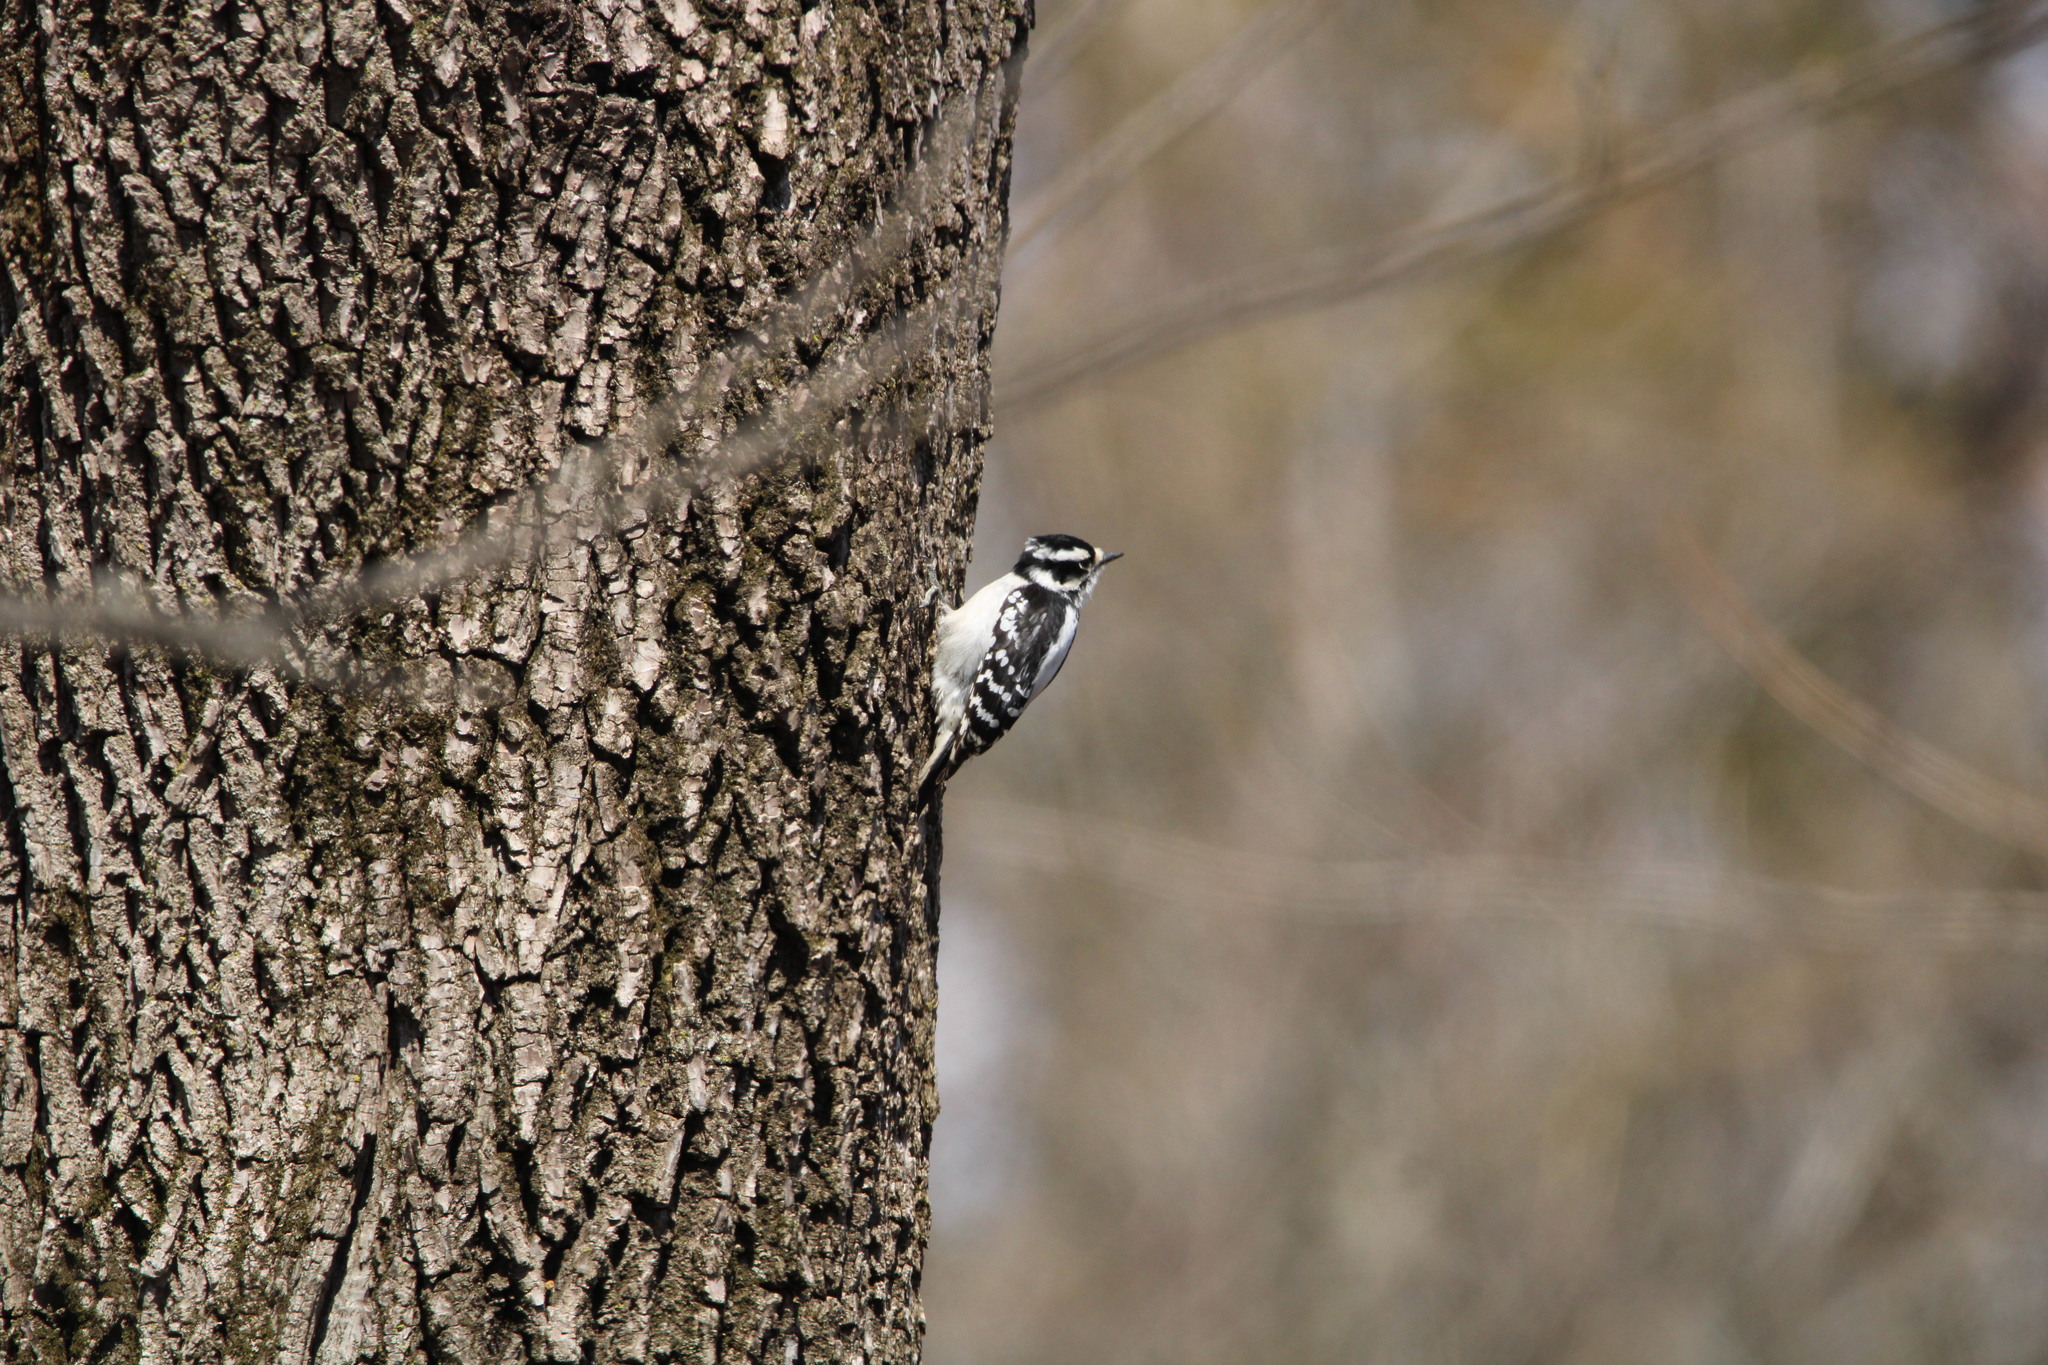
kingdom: Animalia
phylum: Chordata
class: Aves
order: Piciformes
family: Picidae
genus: Dryobates
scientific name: Dryobates pubescens
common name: Downy woodpecker
